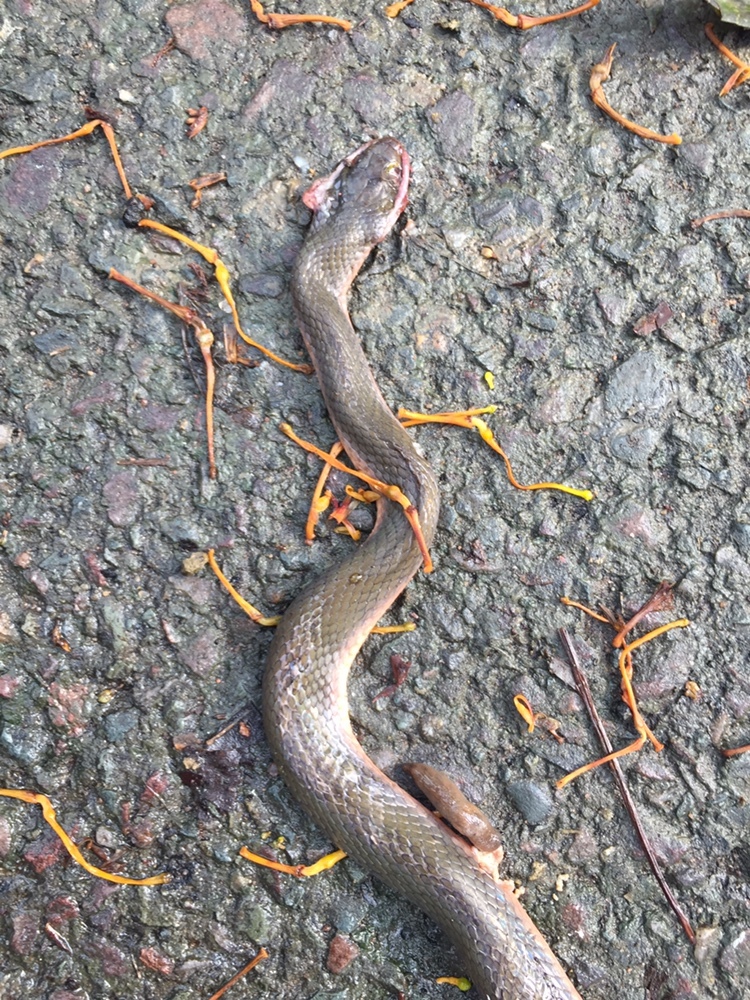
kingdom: Animalia
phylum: Chordata
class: Squamata
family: Lamprophiidae
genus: Lycodonomorphus
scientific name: Lycodonomorphus rufulus
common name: Brown water snake
